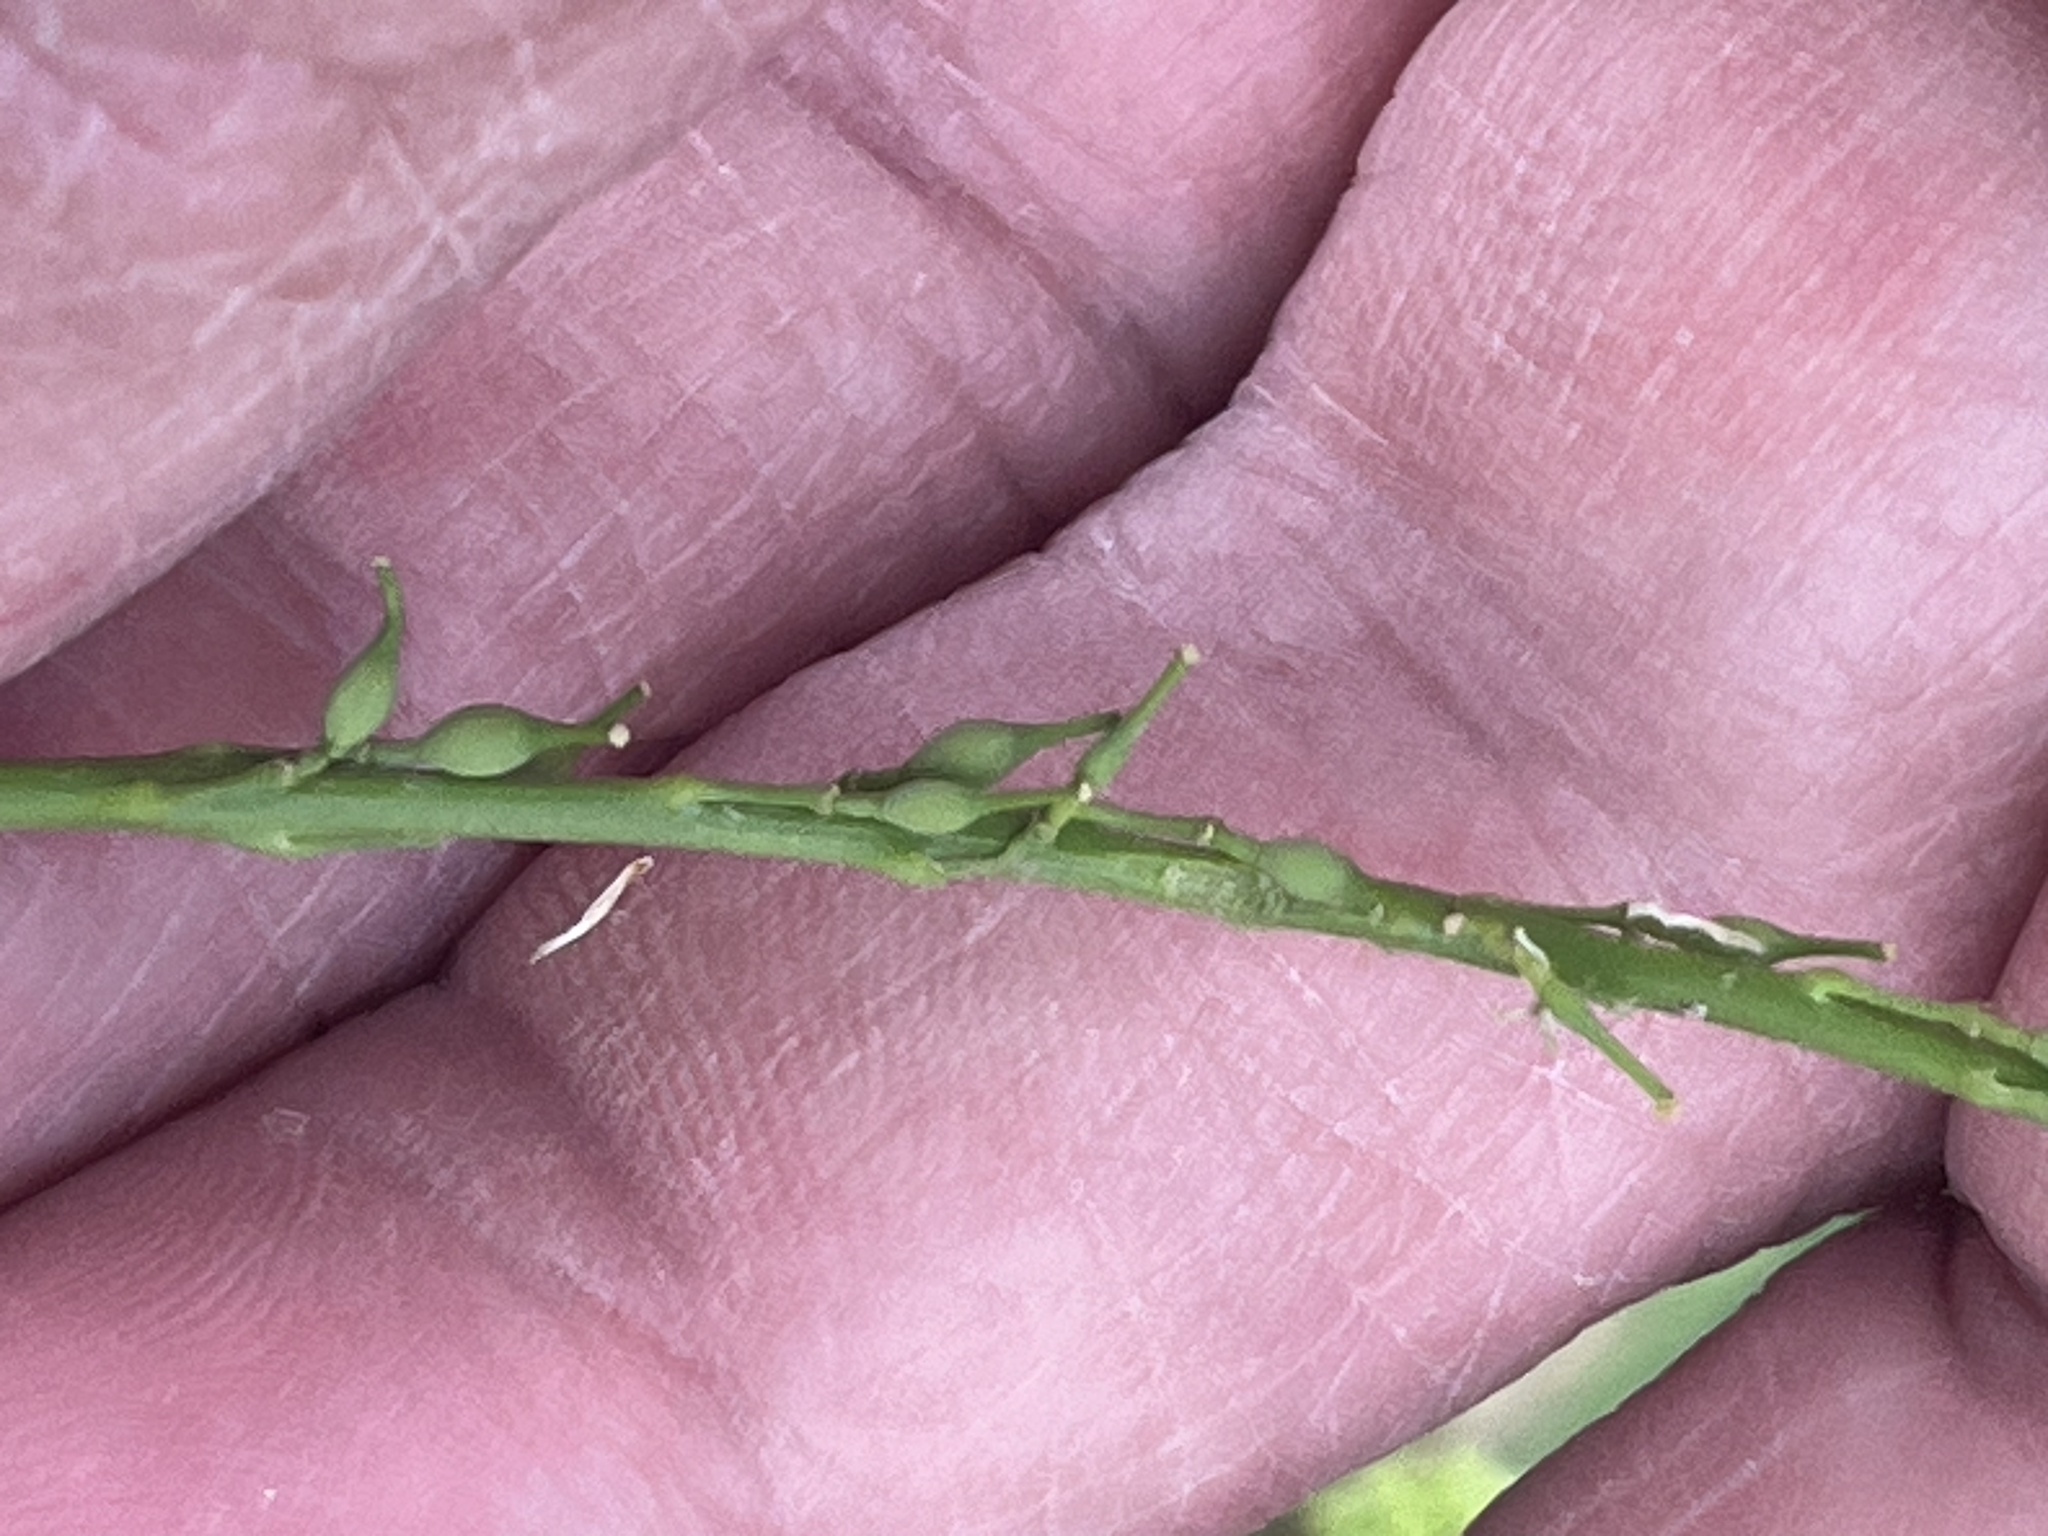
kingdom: Plantae
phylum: Tracheophyta
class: Magnoliopsida
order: Brassicales
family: Brassicaceae
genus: Rapistrum
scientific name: Rapistrum rugosum
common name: Annual bastardcabbage
